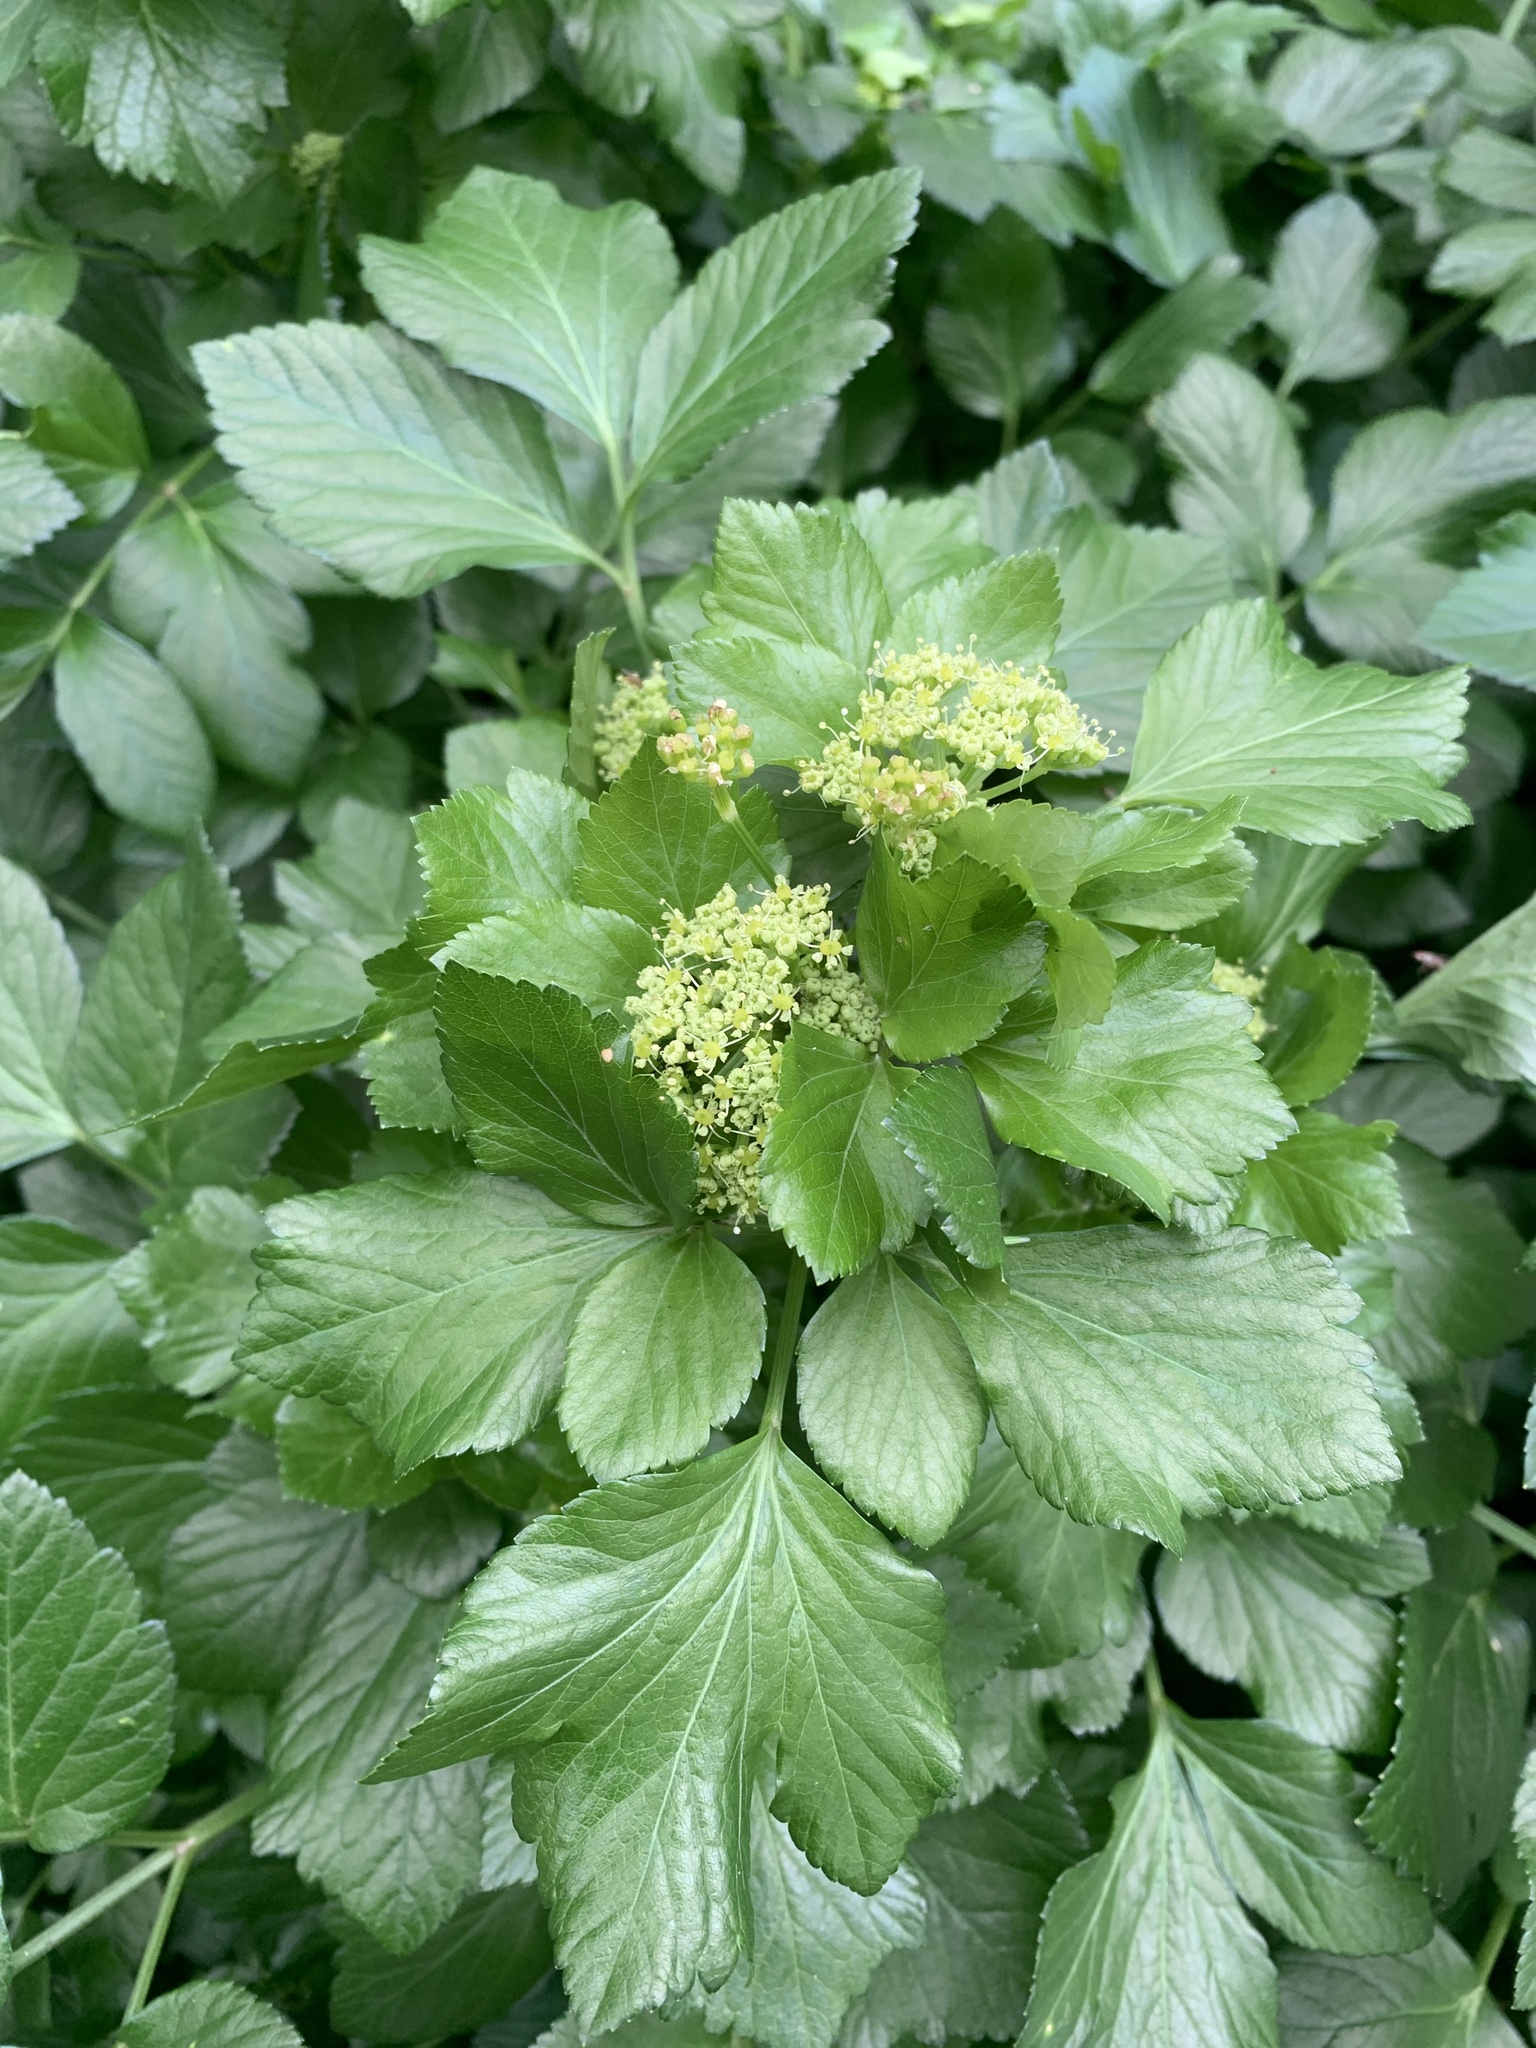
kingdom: Plantae
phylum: Tracheophyta
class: Magnoliopsida
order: Apiales
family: Apiaceae
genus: Smyrnium
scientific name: Smyrnium olusatrum
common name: Alexanders
